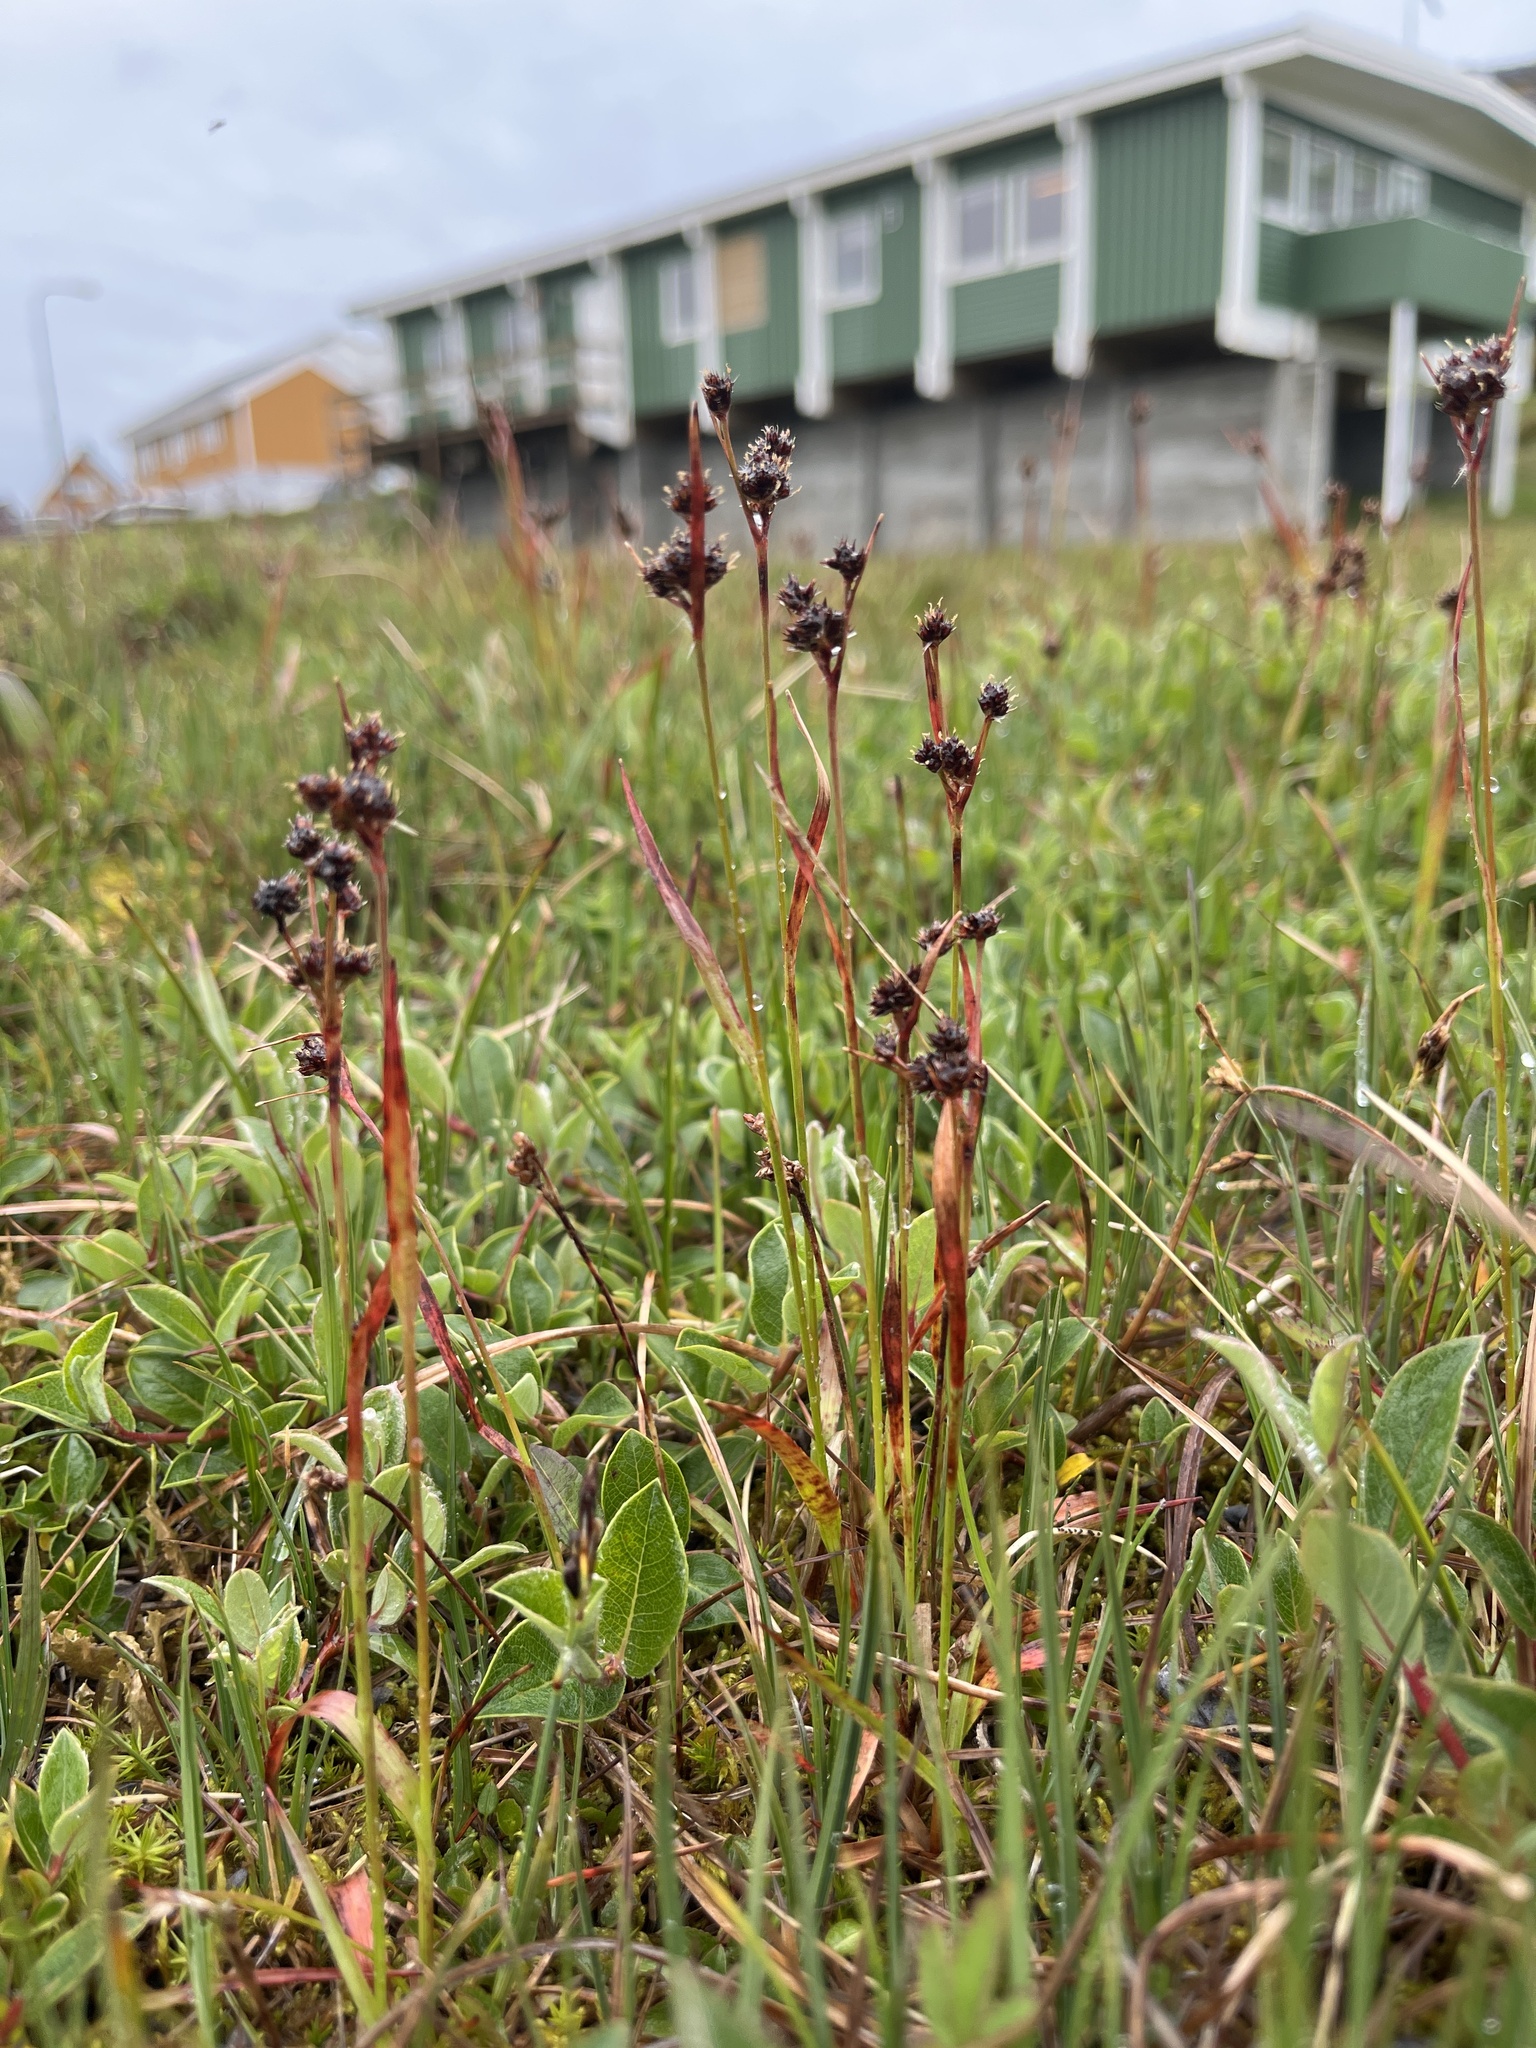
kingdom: Plantae
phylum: Tracheophyta
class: Liliopsida
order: Poales
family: Juncaceae
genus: Luzula
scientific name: Luzula multiflora
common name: Heath wood-rush
